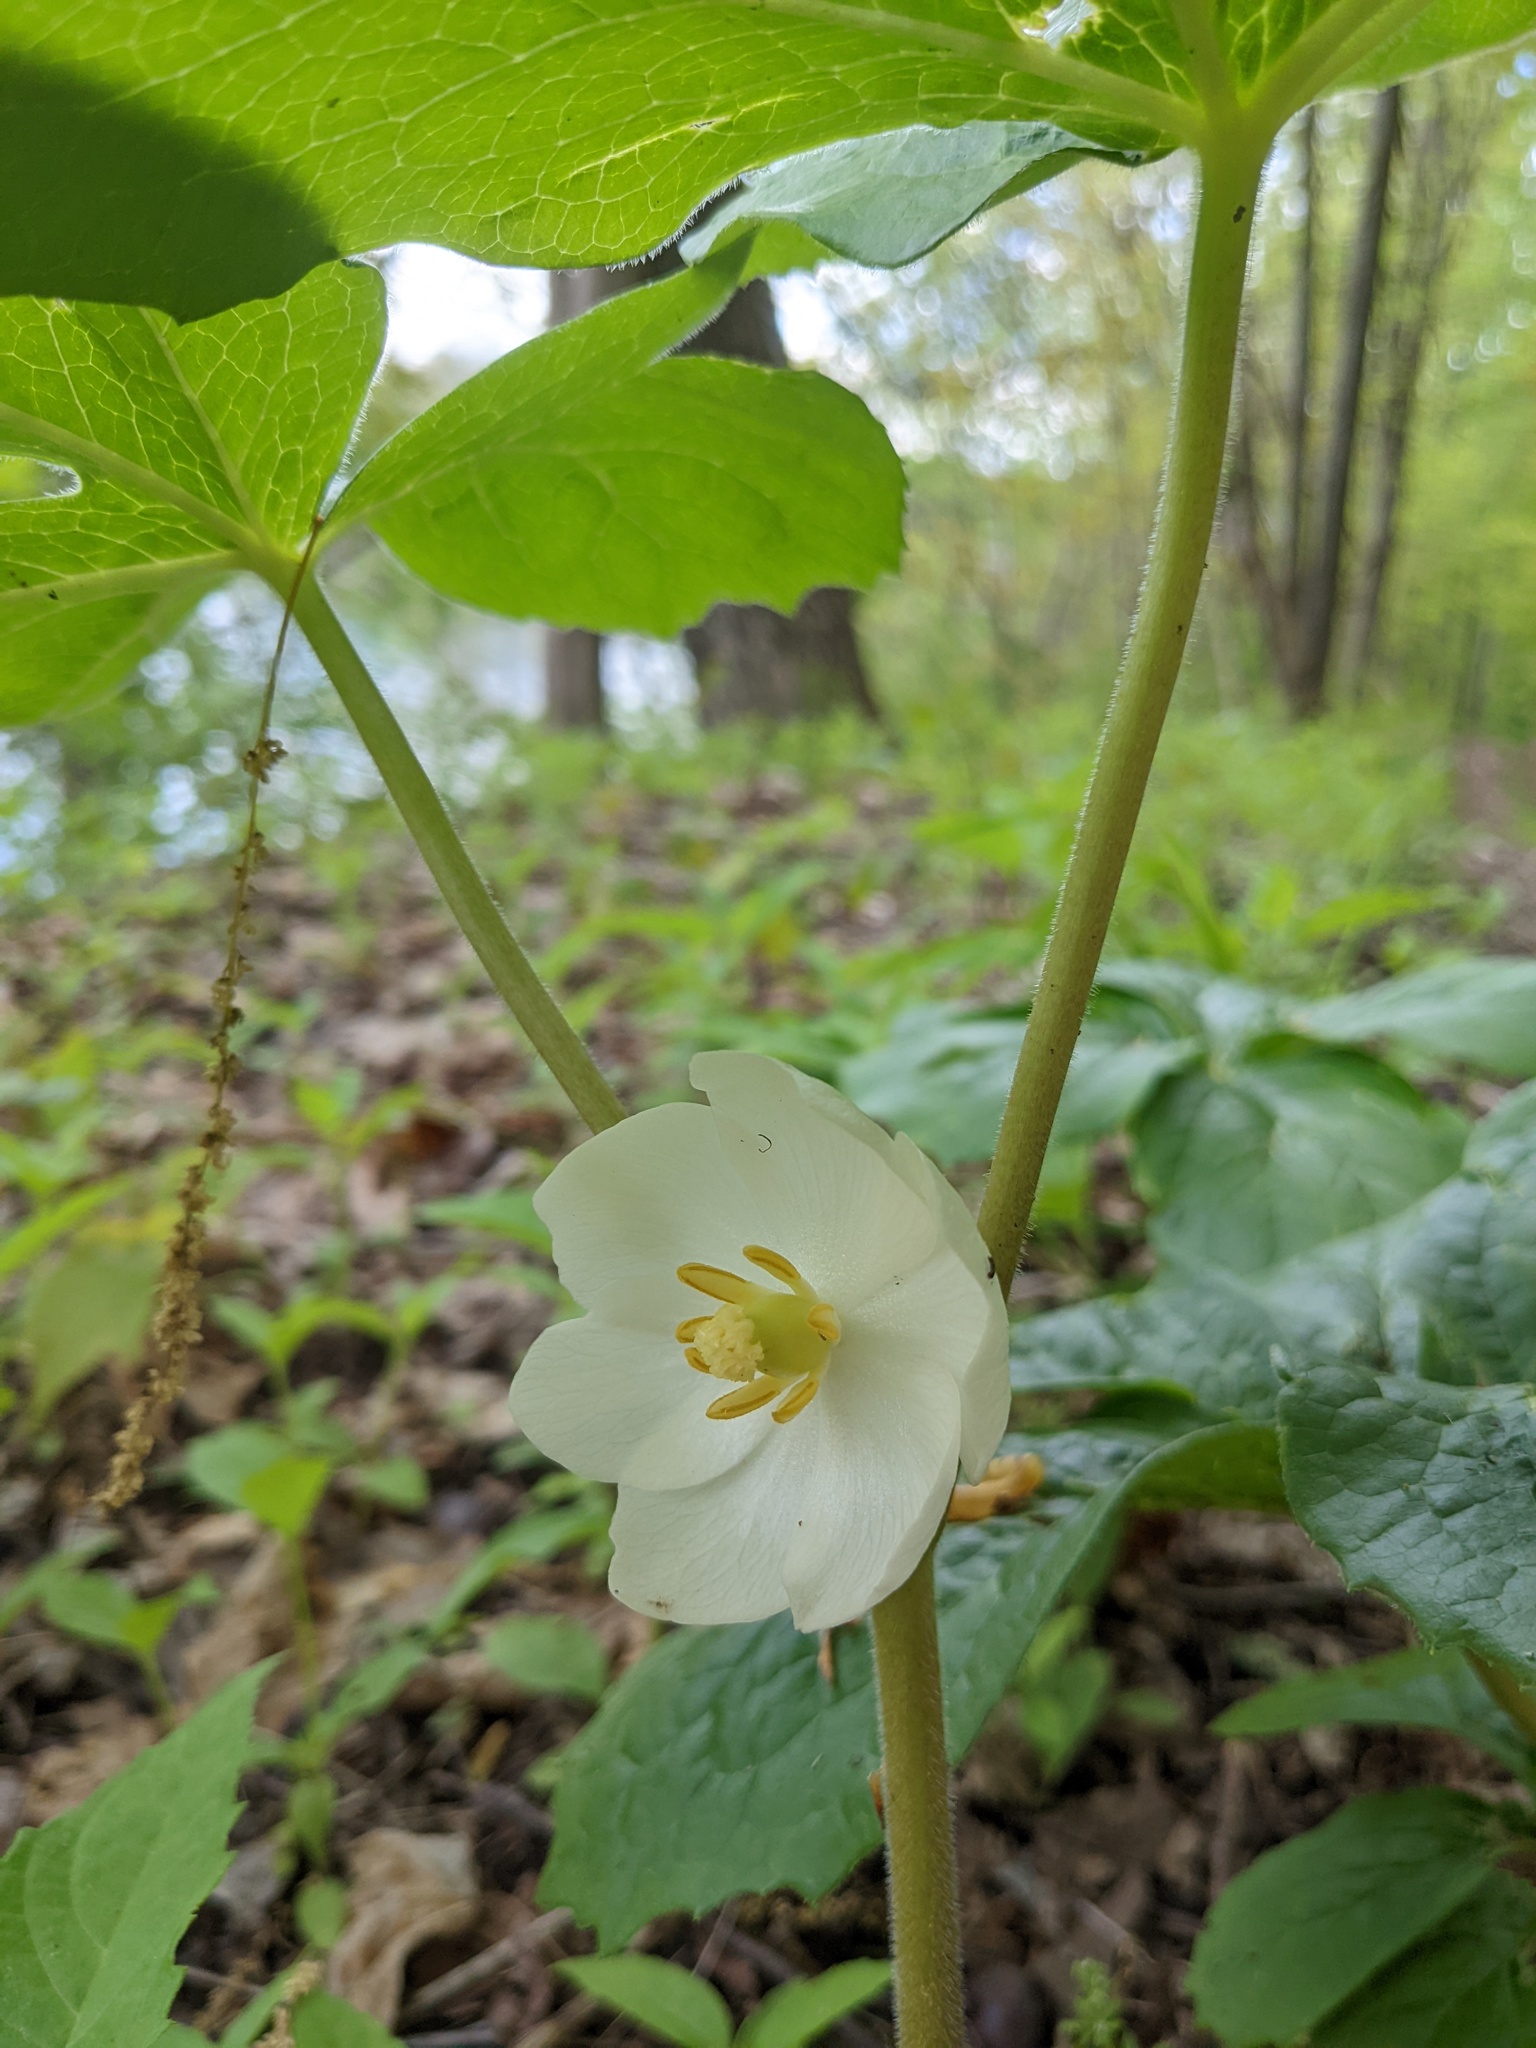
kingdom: Plantae
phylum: Tracheophyta
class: Magnoliopsida
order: Ranunculales
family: Berberidaceae
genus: Podophyllum
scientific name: Podophyllum peltatum
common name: Wild mandrake
